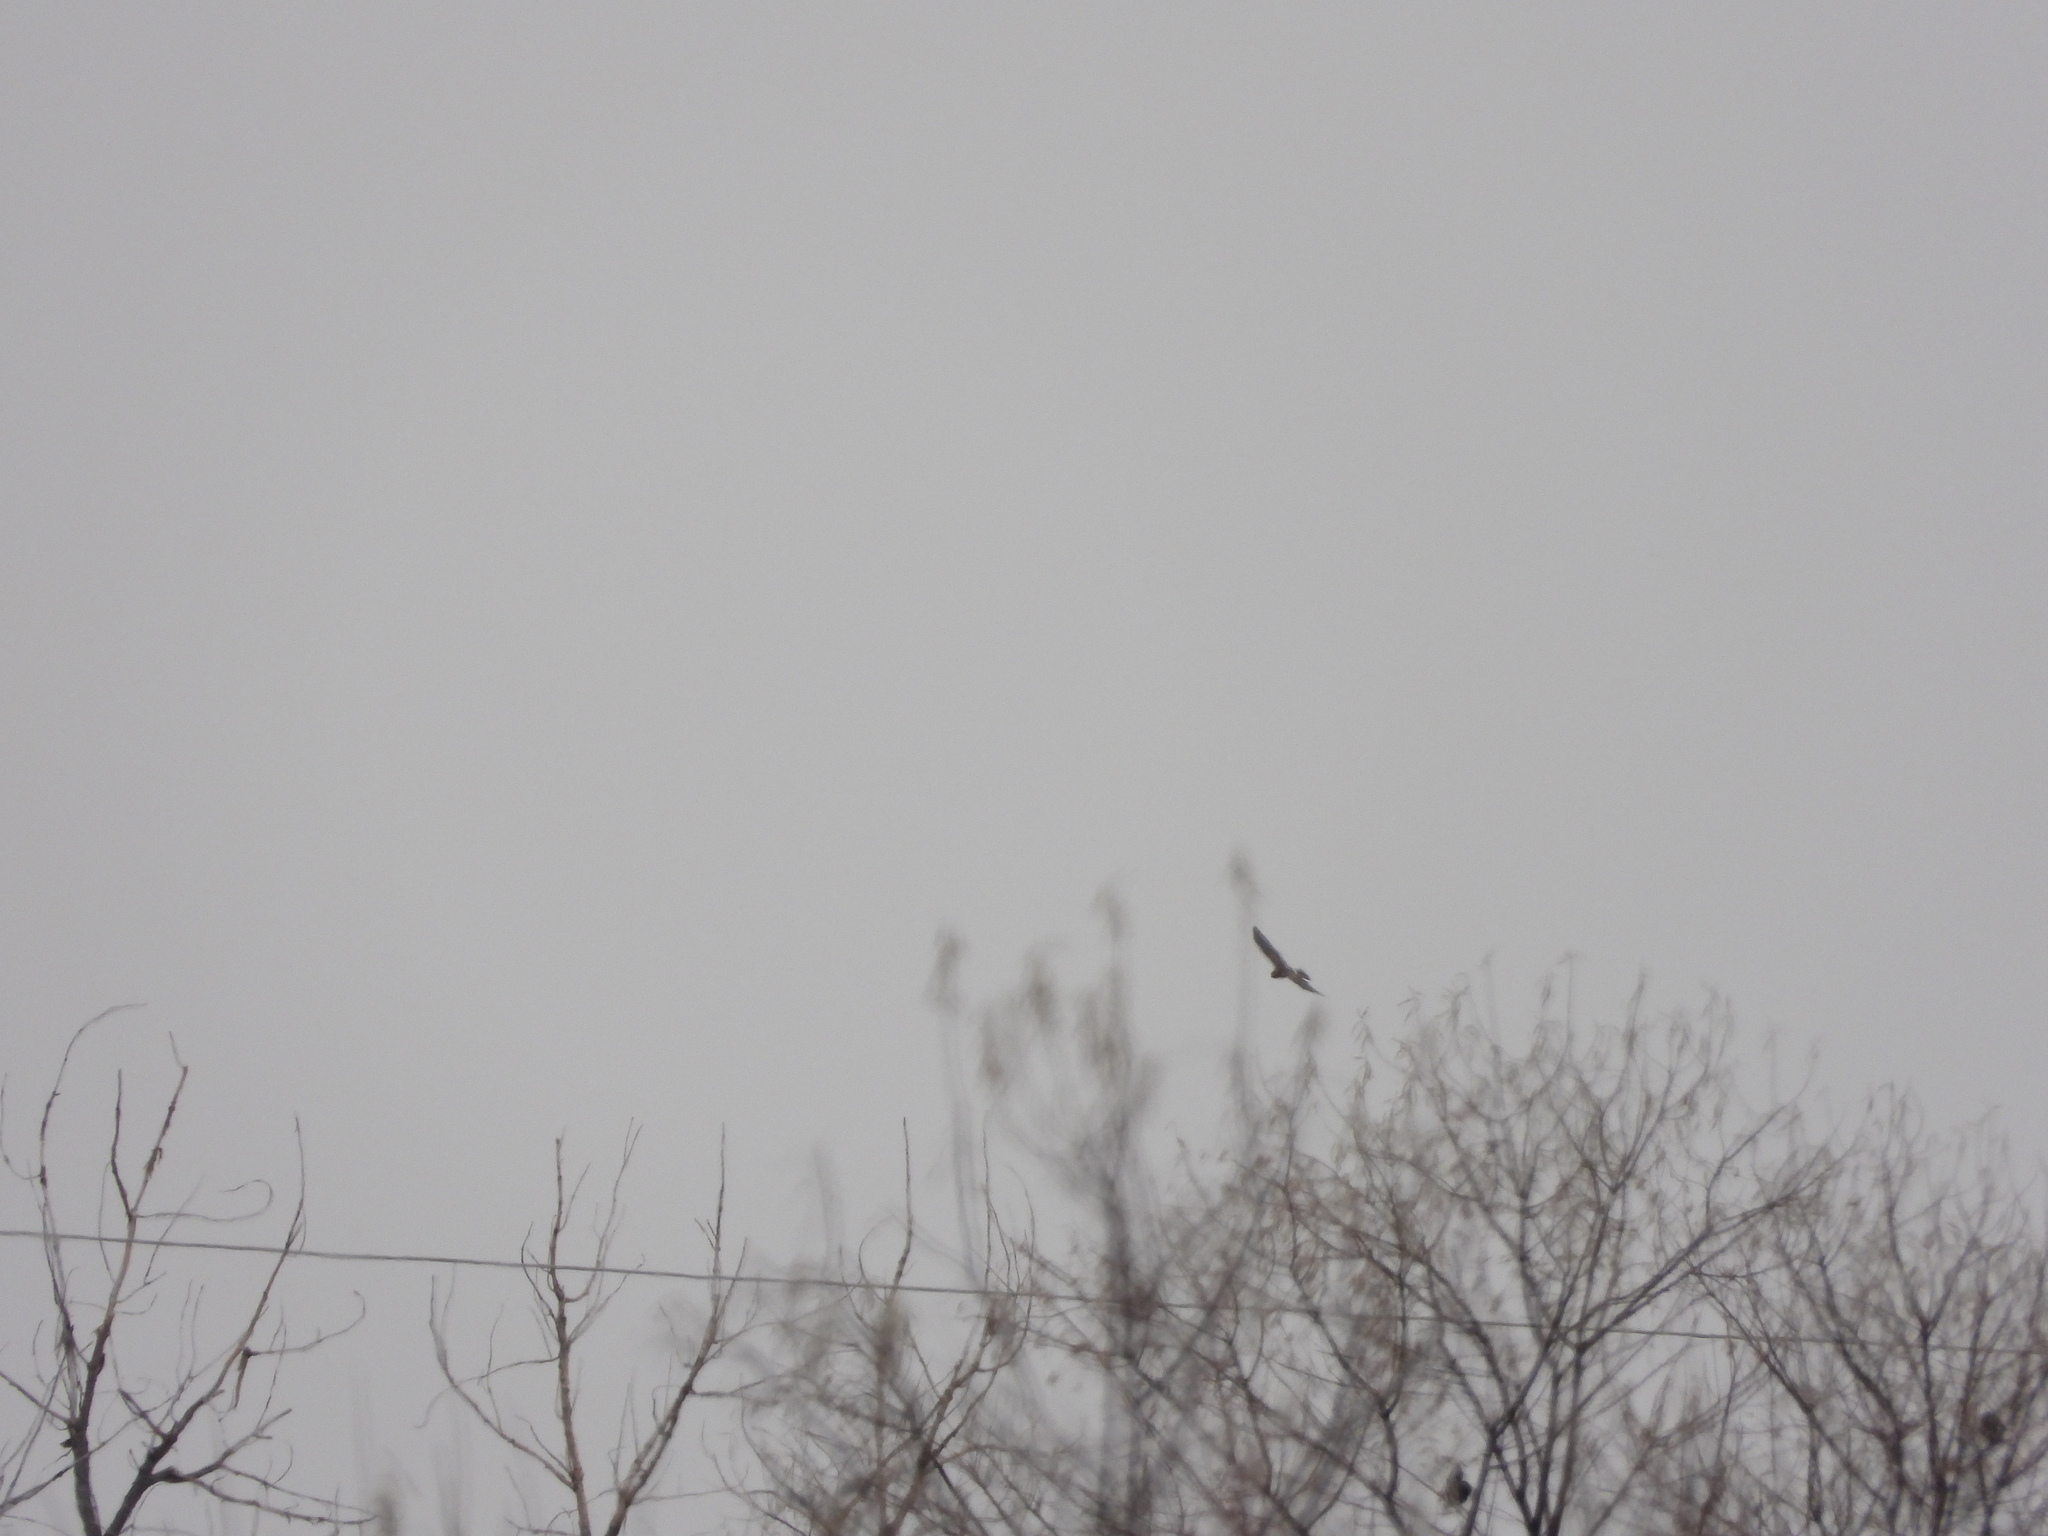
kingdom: Animalia
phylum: Chordata
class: Aves
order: Accipitriformes
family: Accipitridae
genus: Circus
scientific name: Circus cyaneus
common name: Hen harrier
